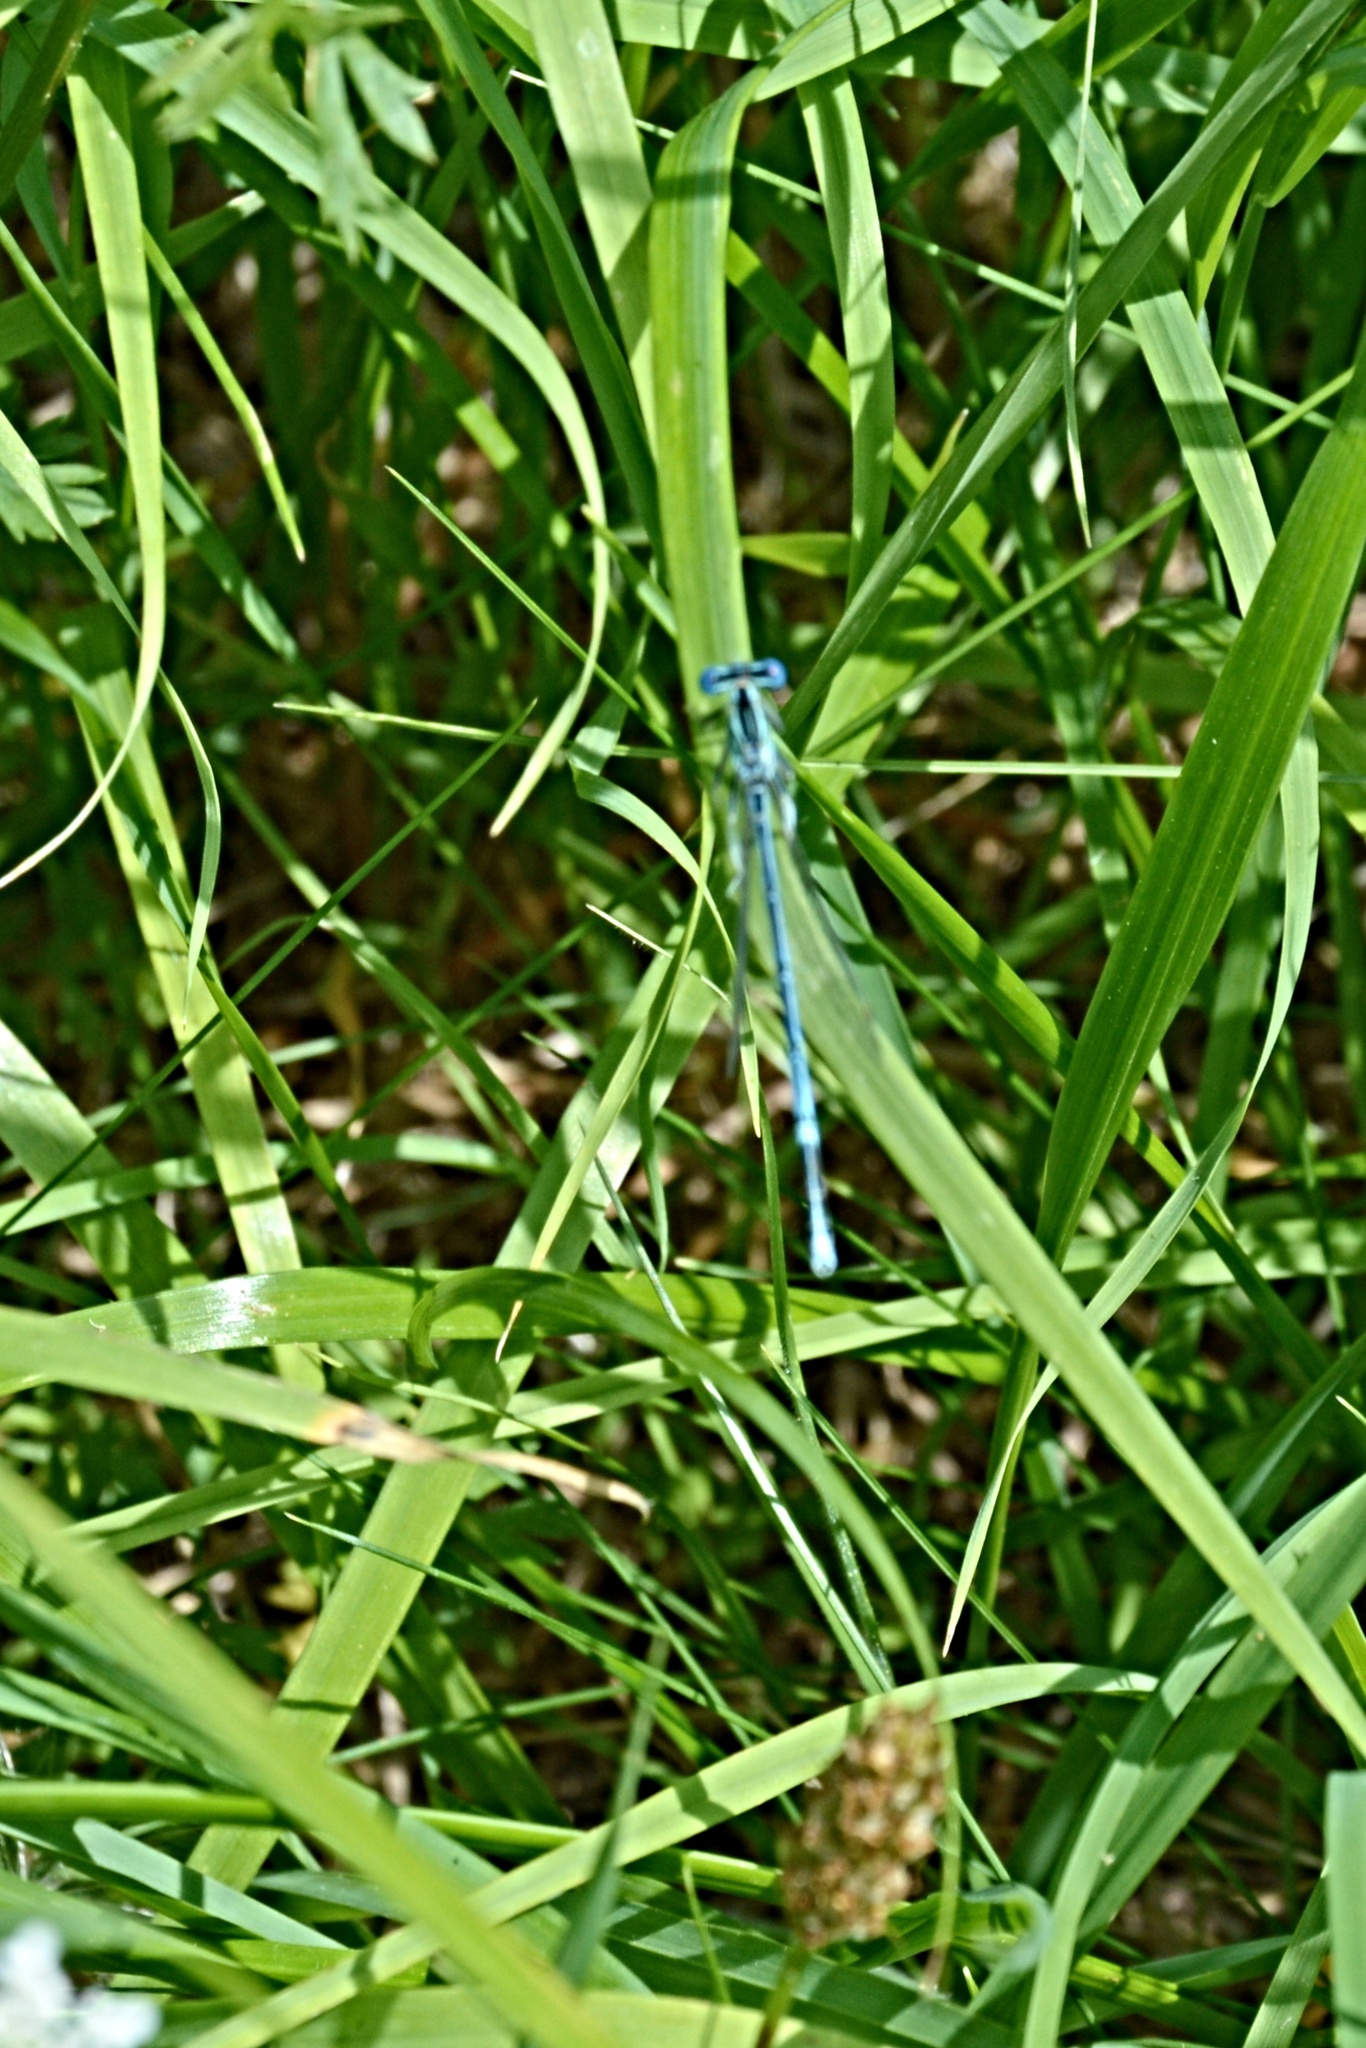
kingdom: Animalia
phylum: Arthropoda
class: Insecta
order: Odonata
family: Platycnemididae
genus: Platycnemis
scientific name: Platycnemis pennipes
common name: White-legged damselfly
